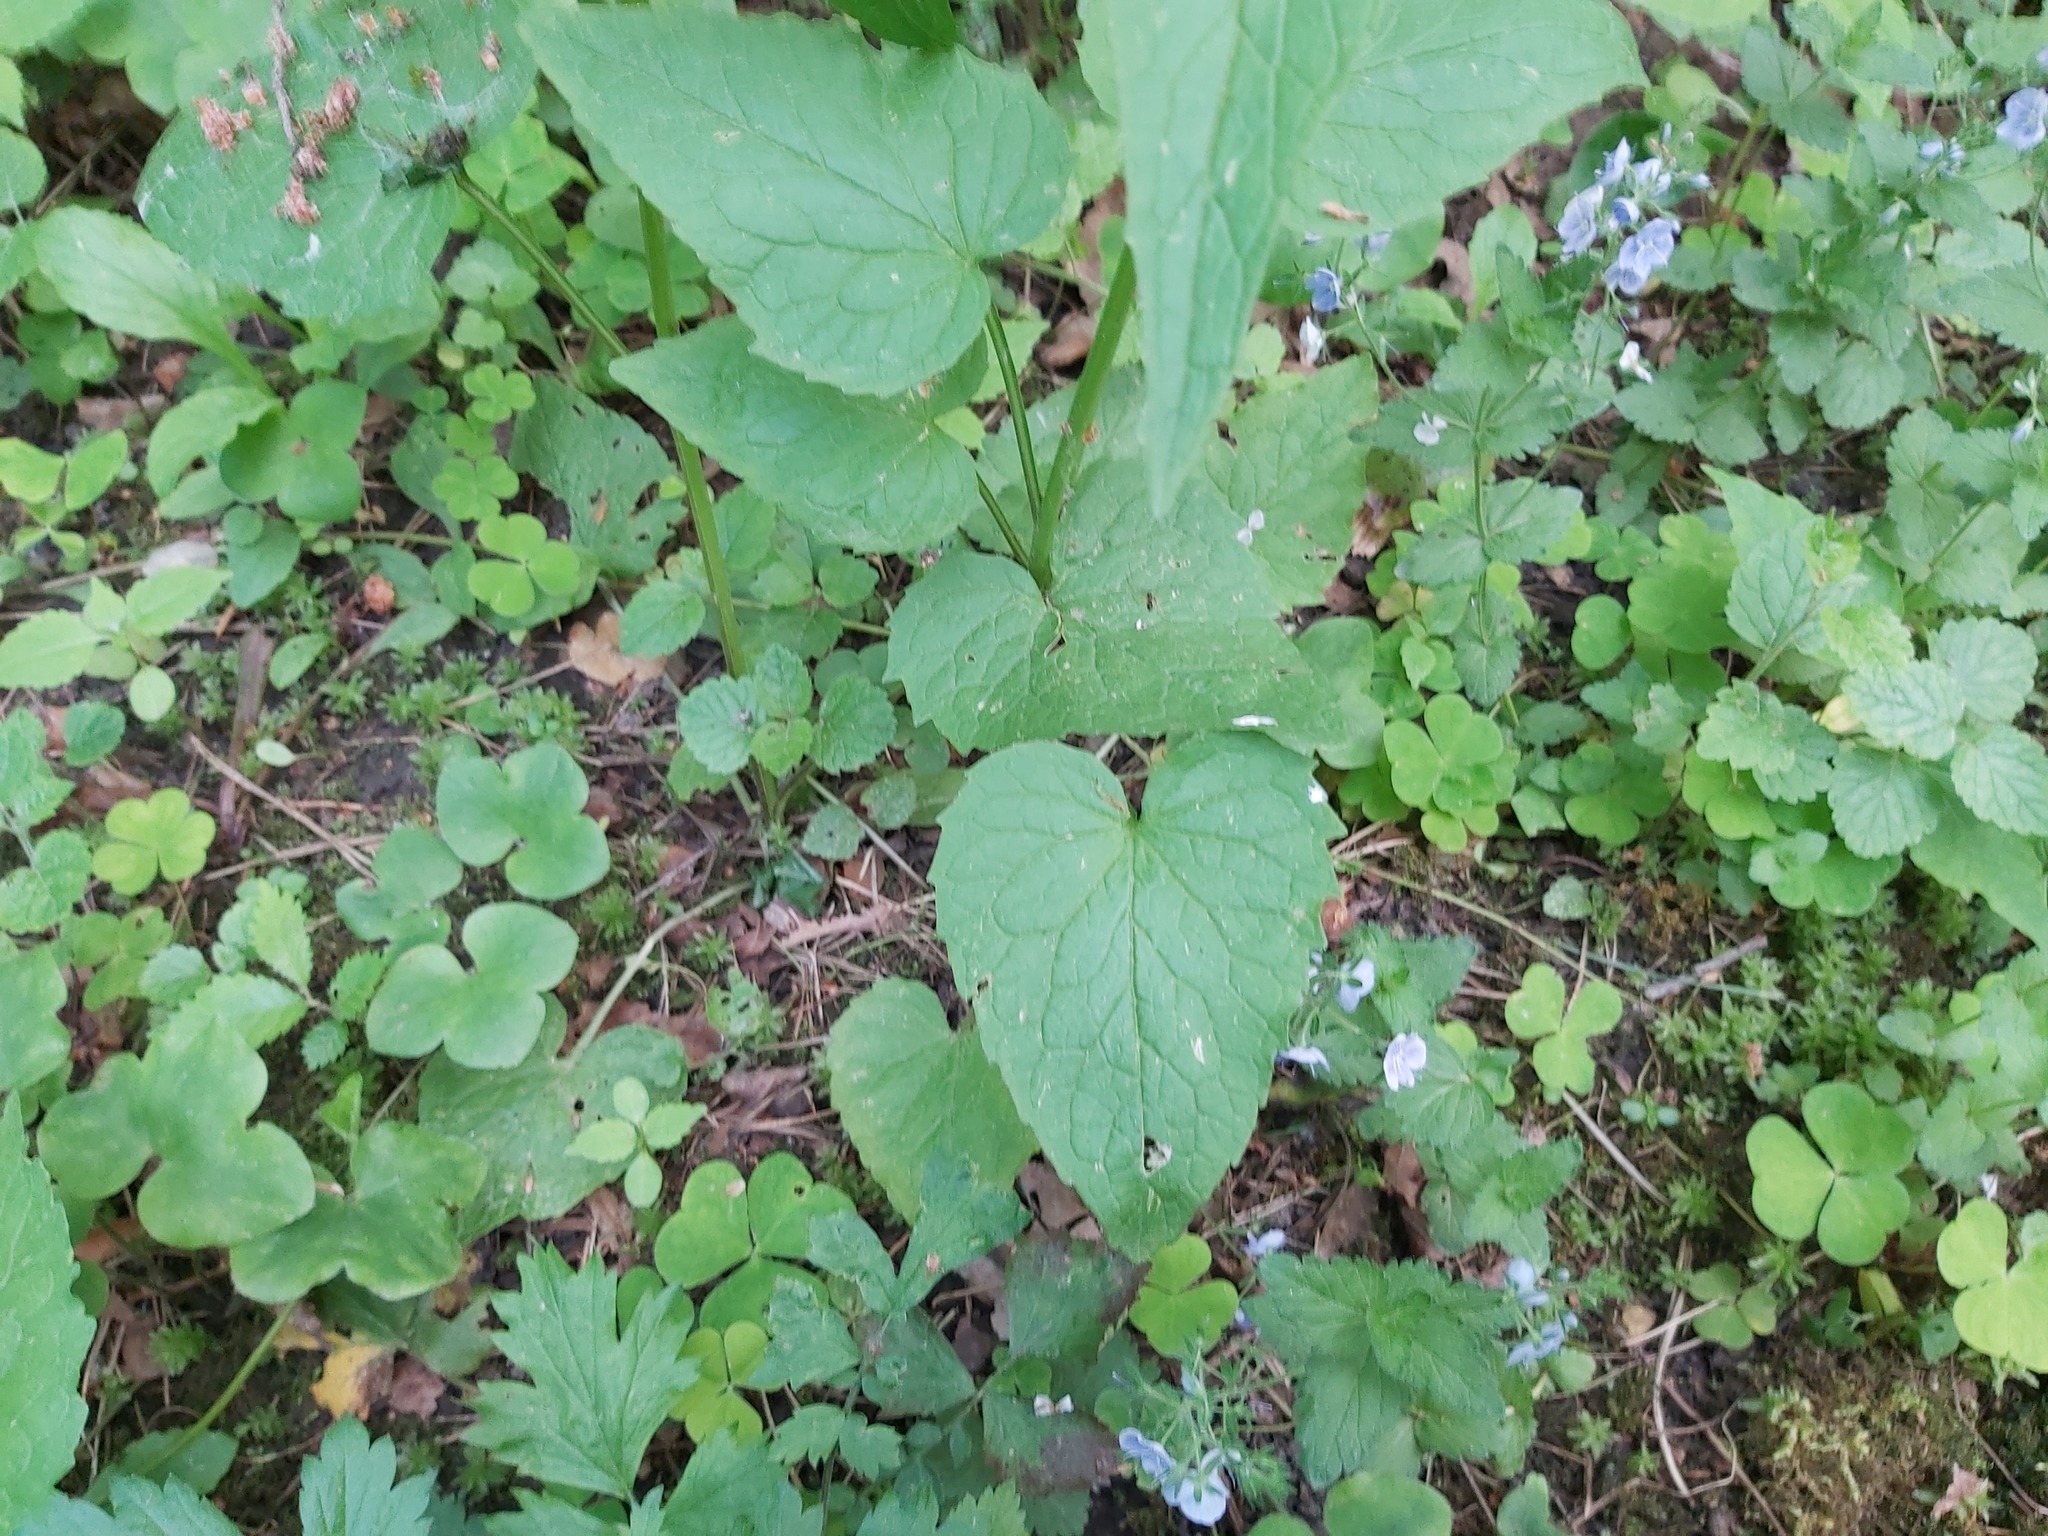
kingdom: Plantae
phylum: Tracheophyta
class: Magnoliopsida
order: Asterales
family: Campanulaceae
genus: Phyteuma
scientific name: Phyteuma spicatum
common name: Spiked rampion
